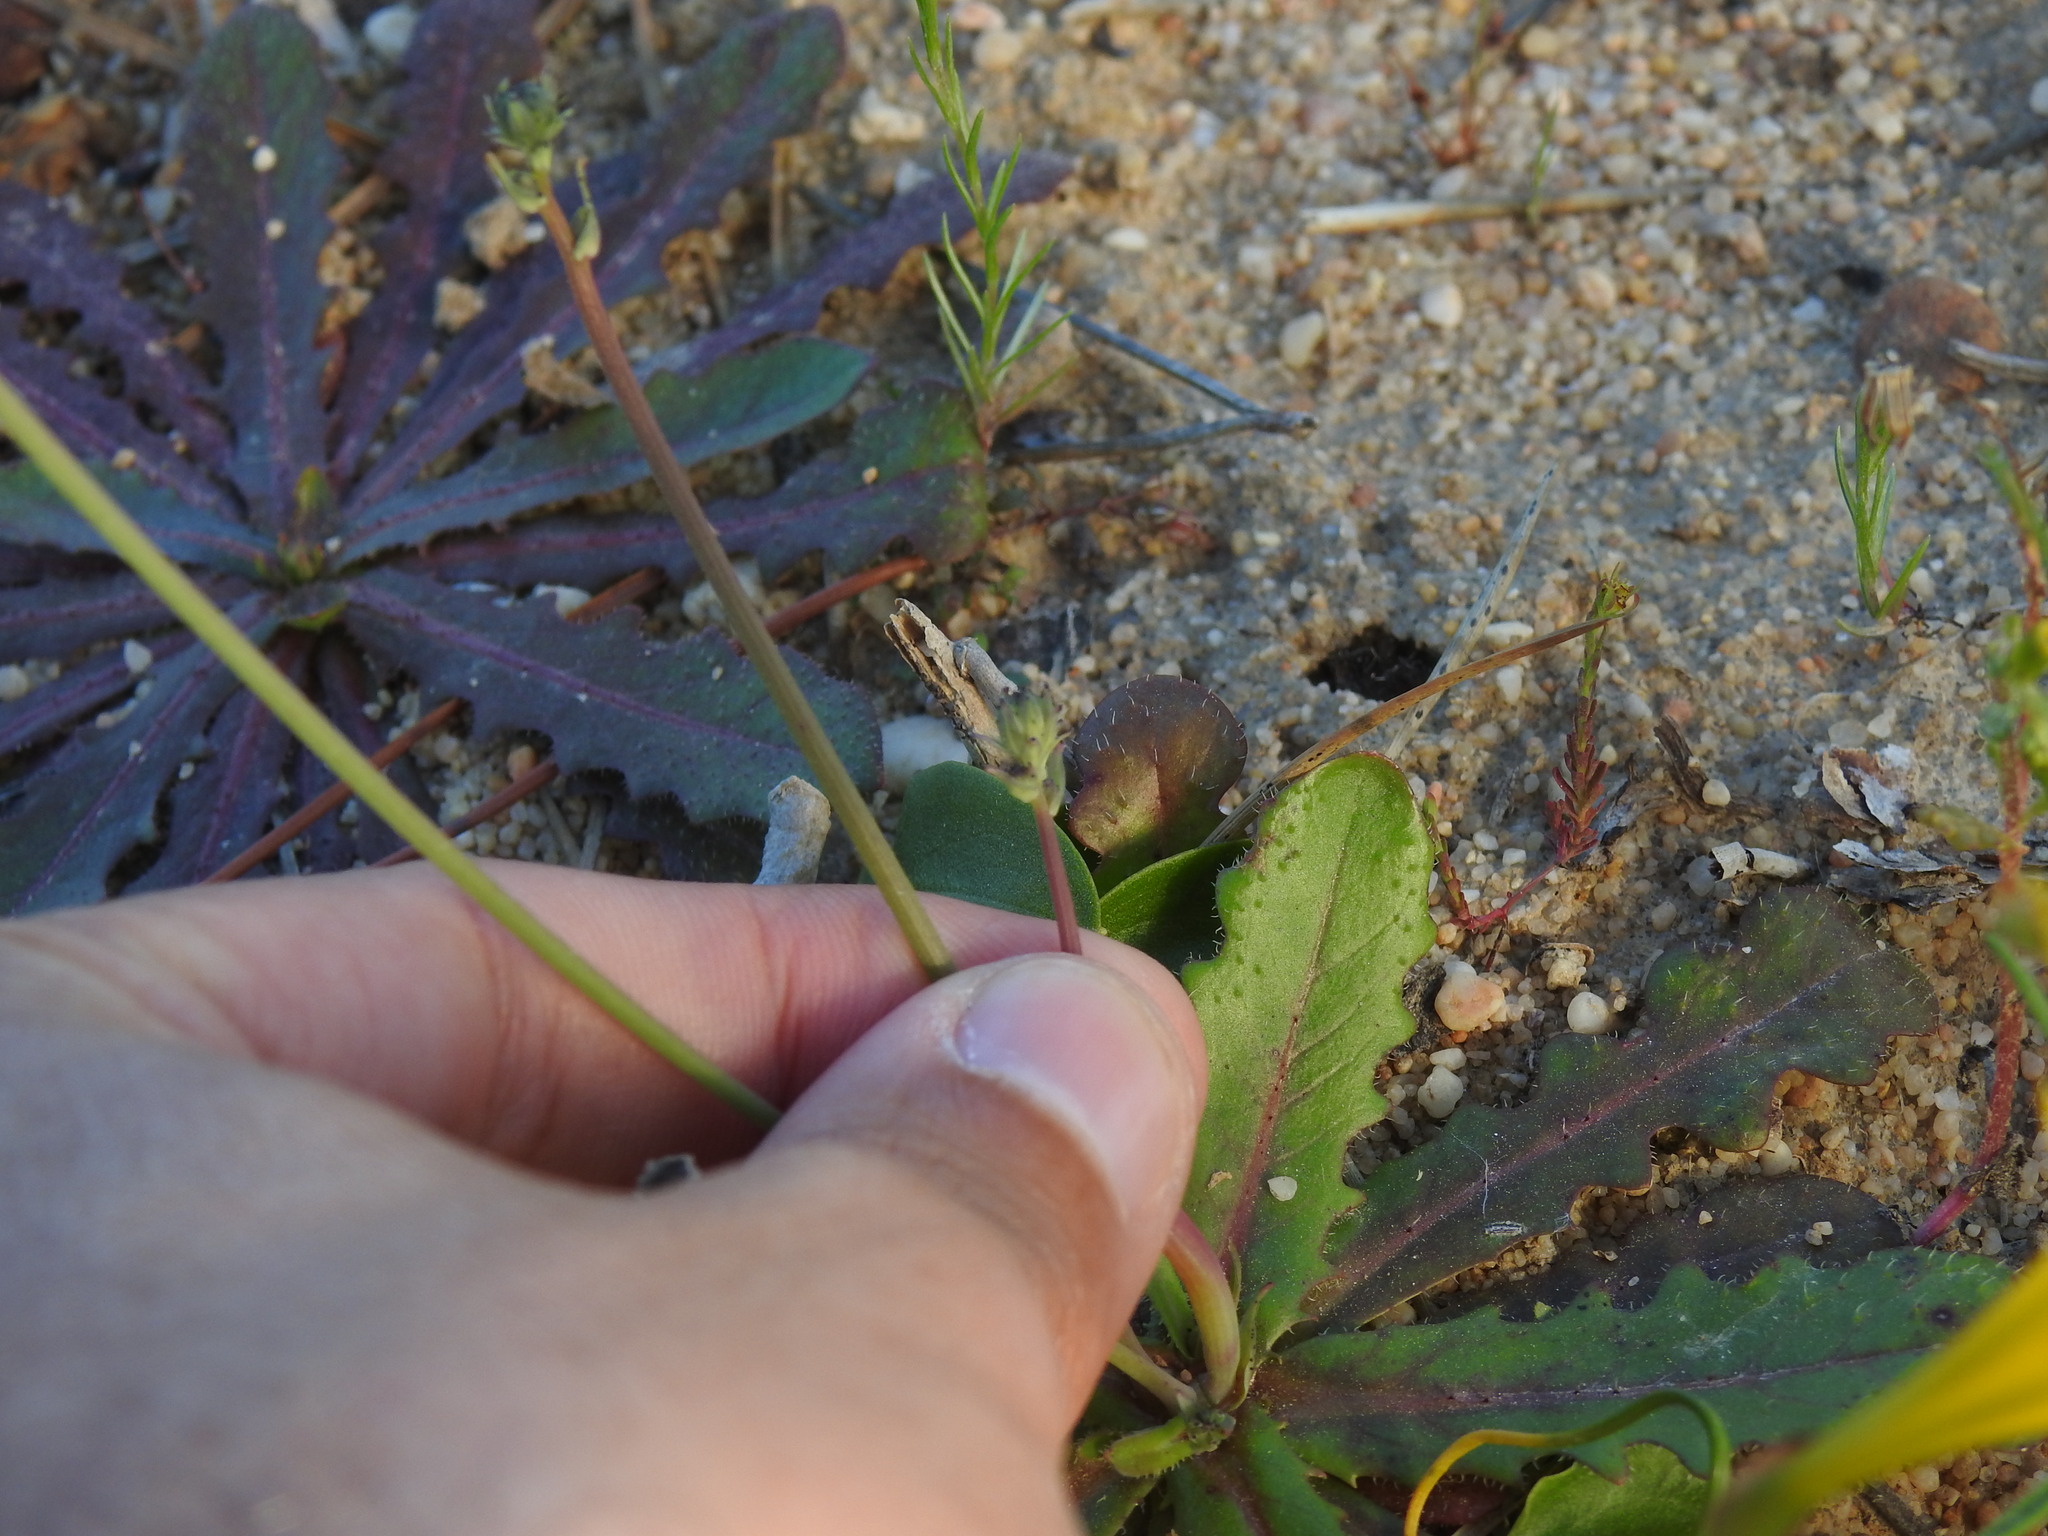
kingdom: Plantae
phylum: Tracheophyta
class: Magnoliopsida
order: Asterales
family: Asteraceae
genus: Hypochaeris
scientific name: Hypochaeris glabra
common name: Smooth catsear
